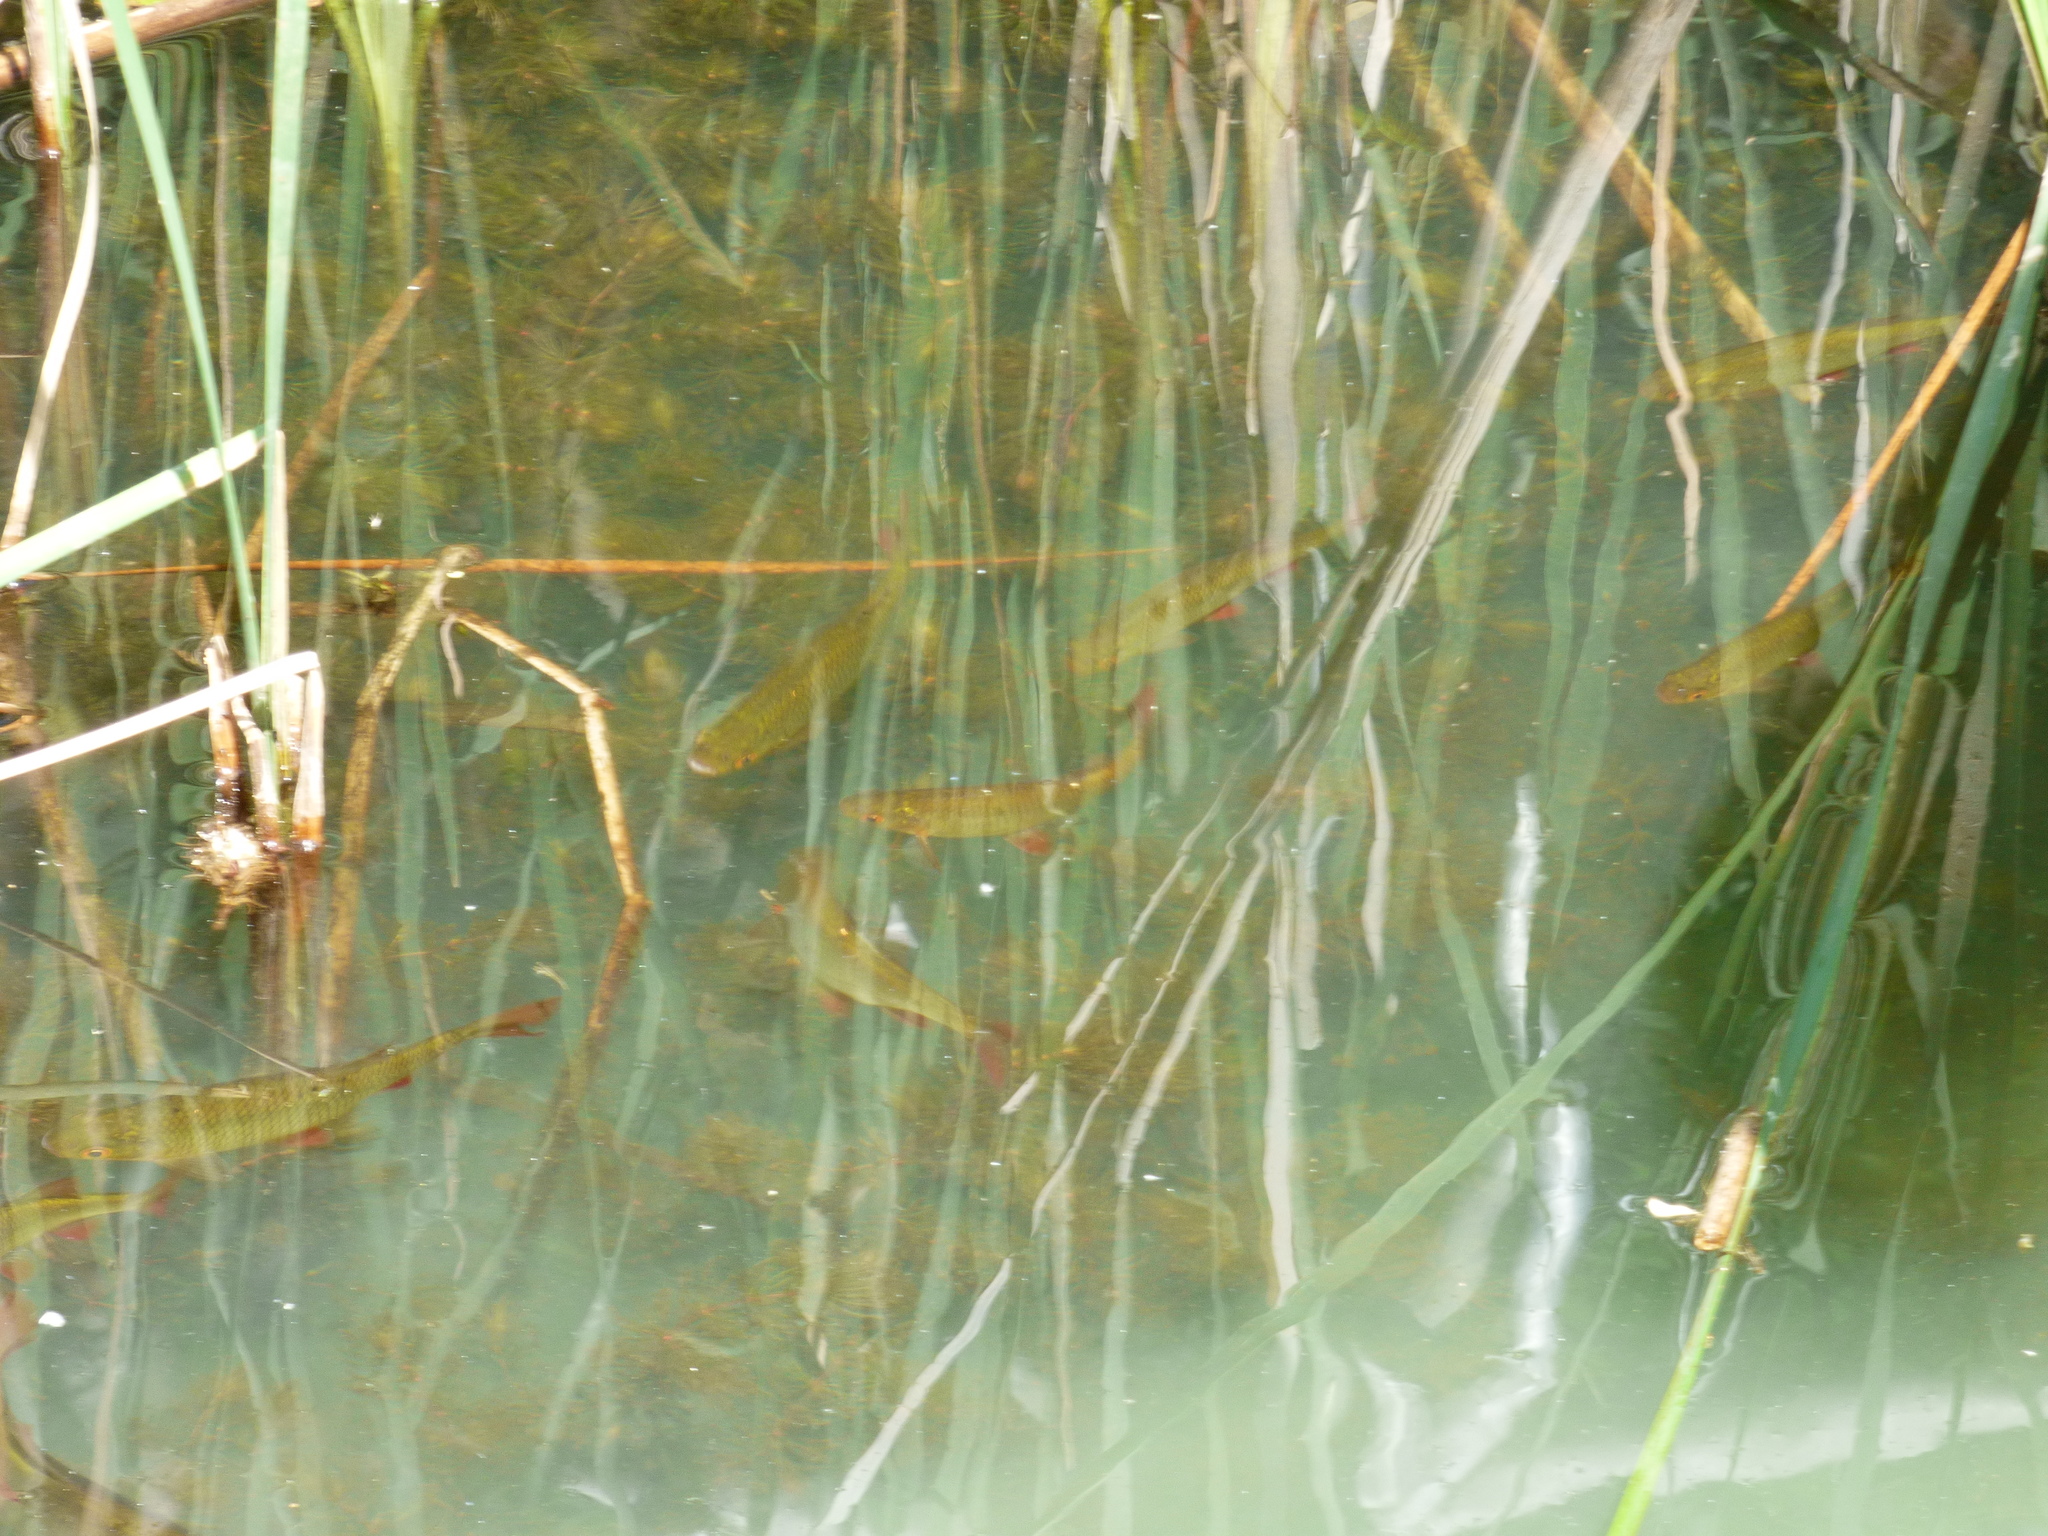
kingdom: Animalia
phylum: Chordata
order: Cypriniformes
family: Cyprinidae
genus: Scardinius
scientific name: Scardinius erythrophthalmus
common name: Rudd
